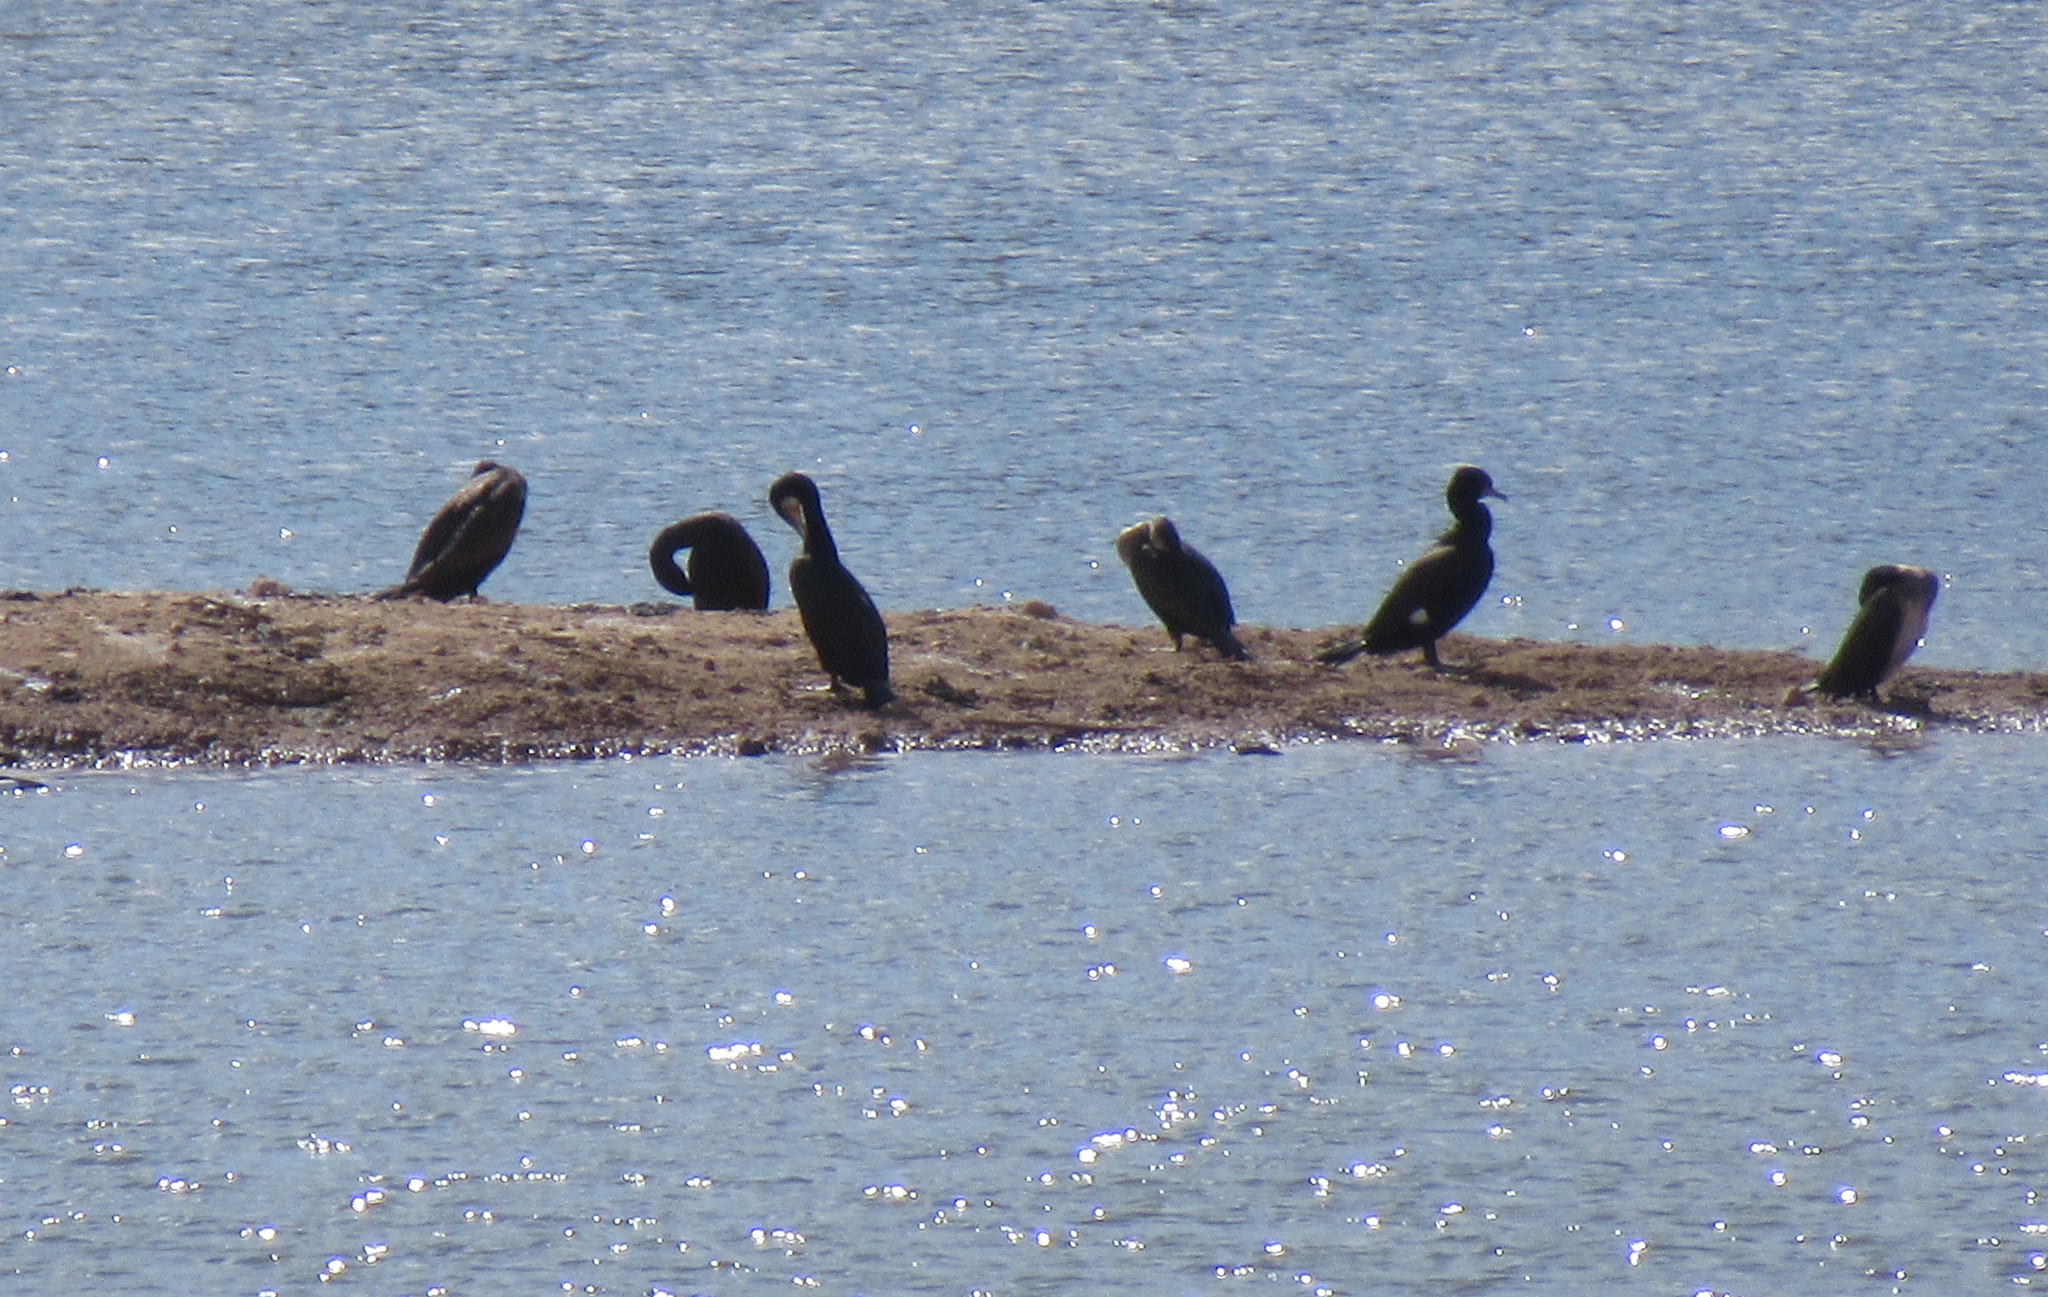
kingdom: Animalia
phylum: Chordata
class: Aves
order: Suliformes
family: Phalacrocoracidae
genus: Phalacrocorax
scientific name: Phalacrocorax carbo
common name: Great cormorant
